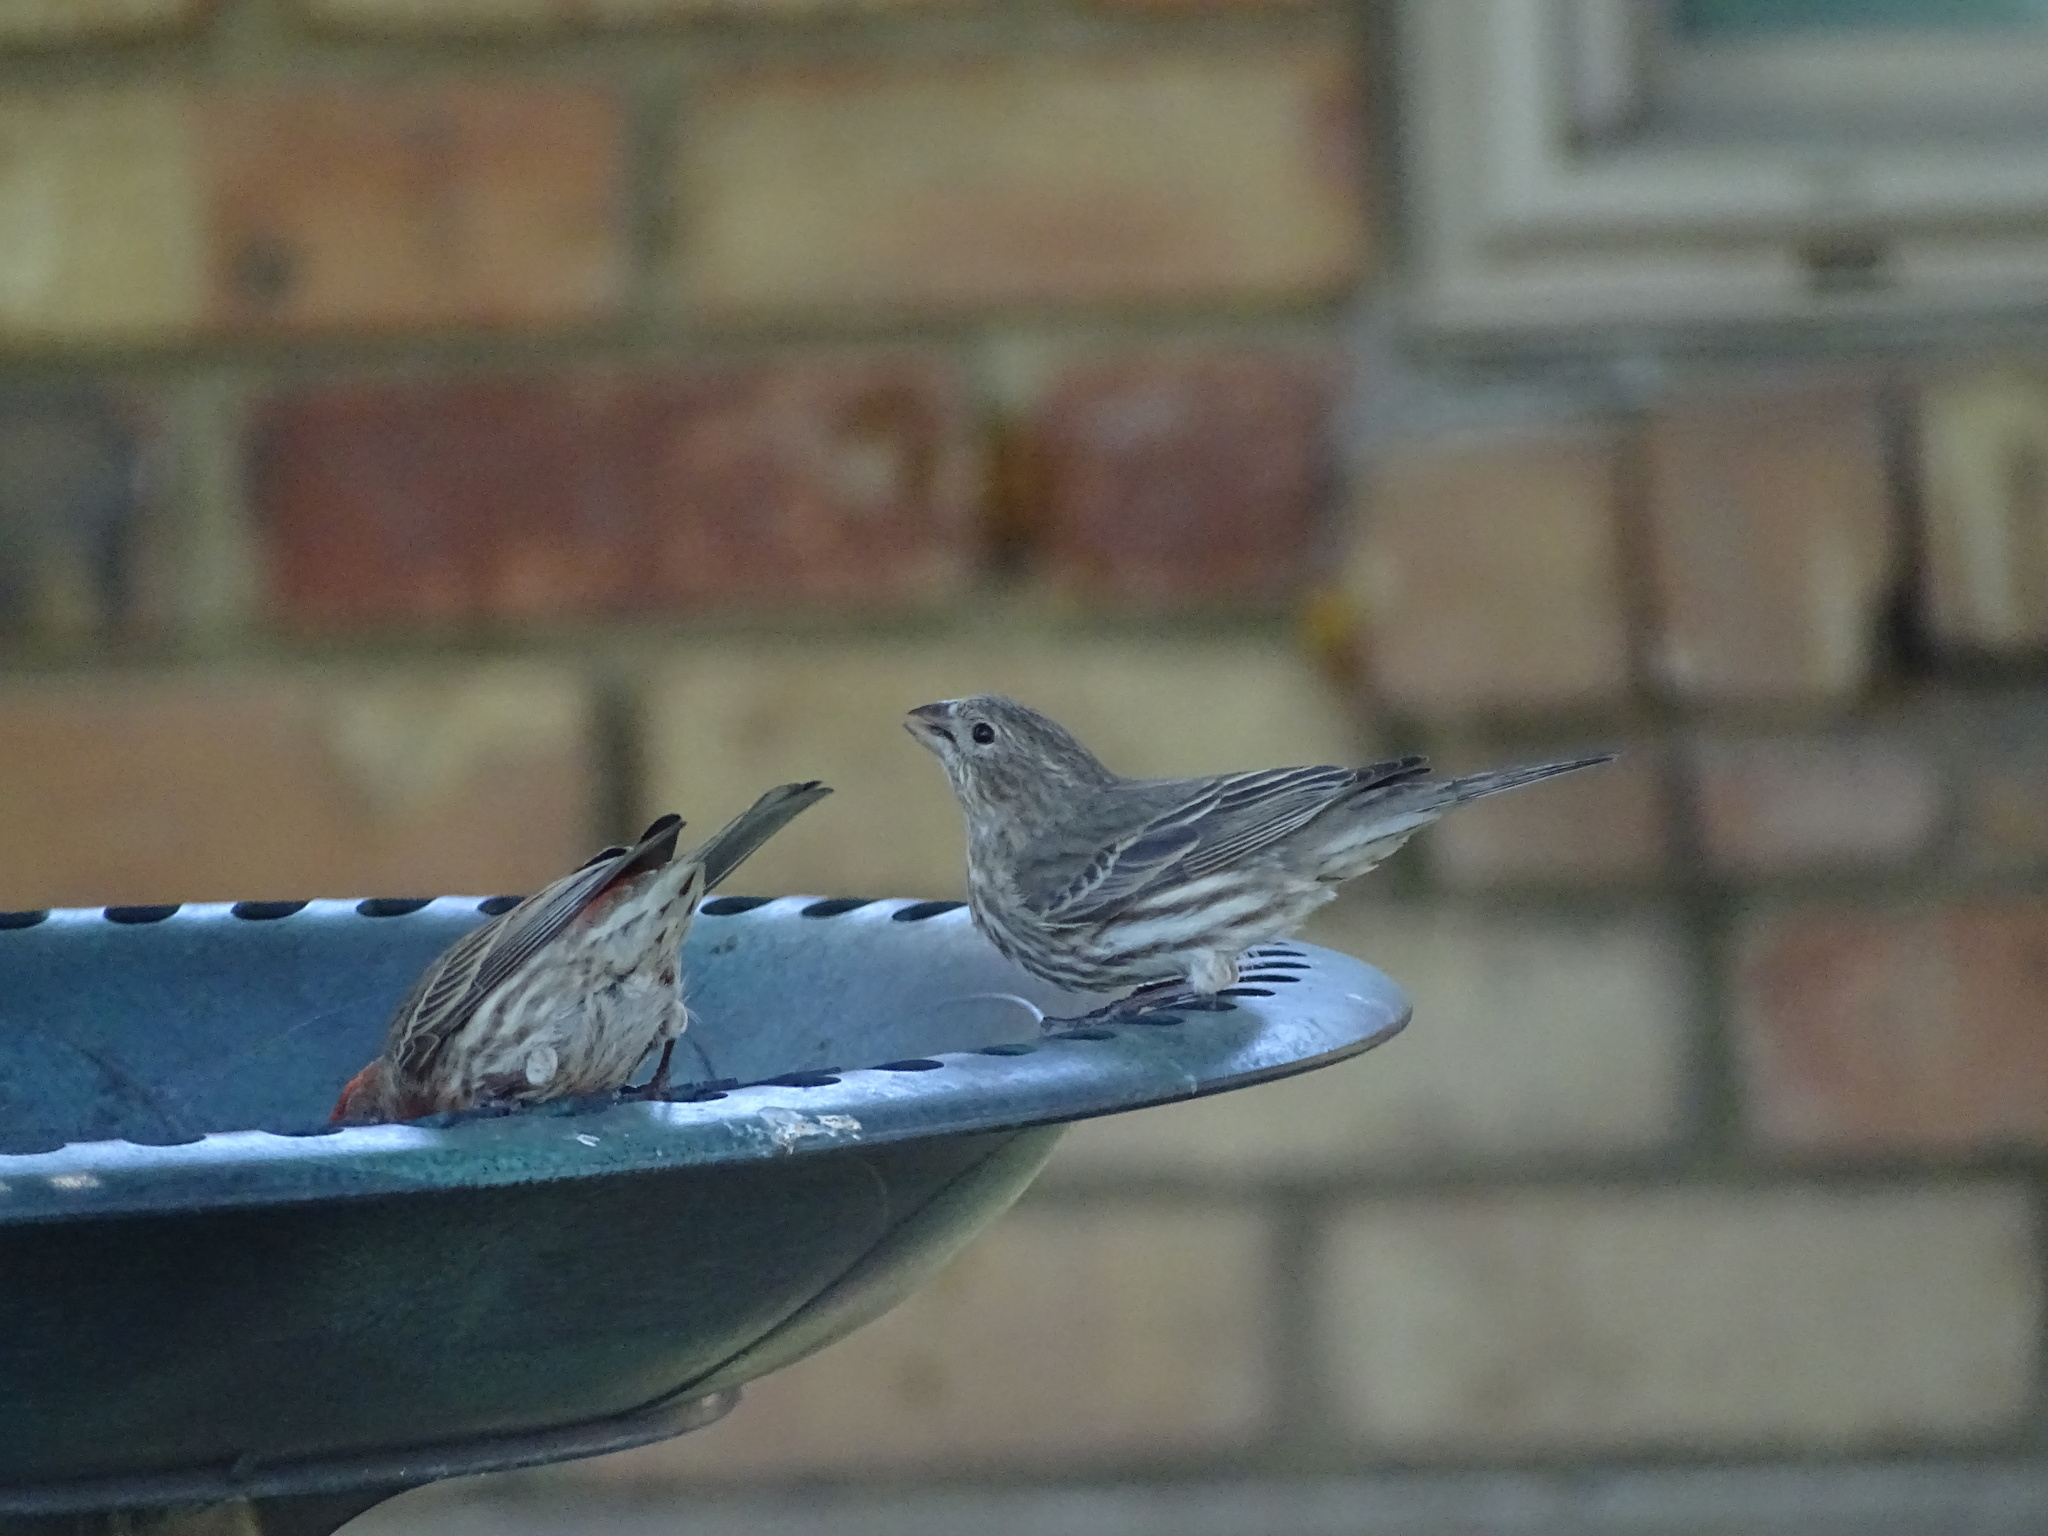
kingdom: Animalia
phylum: Chordata
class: Aves
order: Passeriformes
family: Fringillidae
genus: Haemorhous
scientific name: Haemorhous mexicanus
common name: House finch
